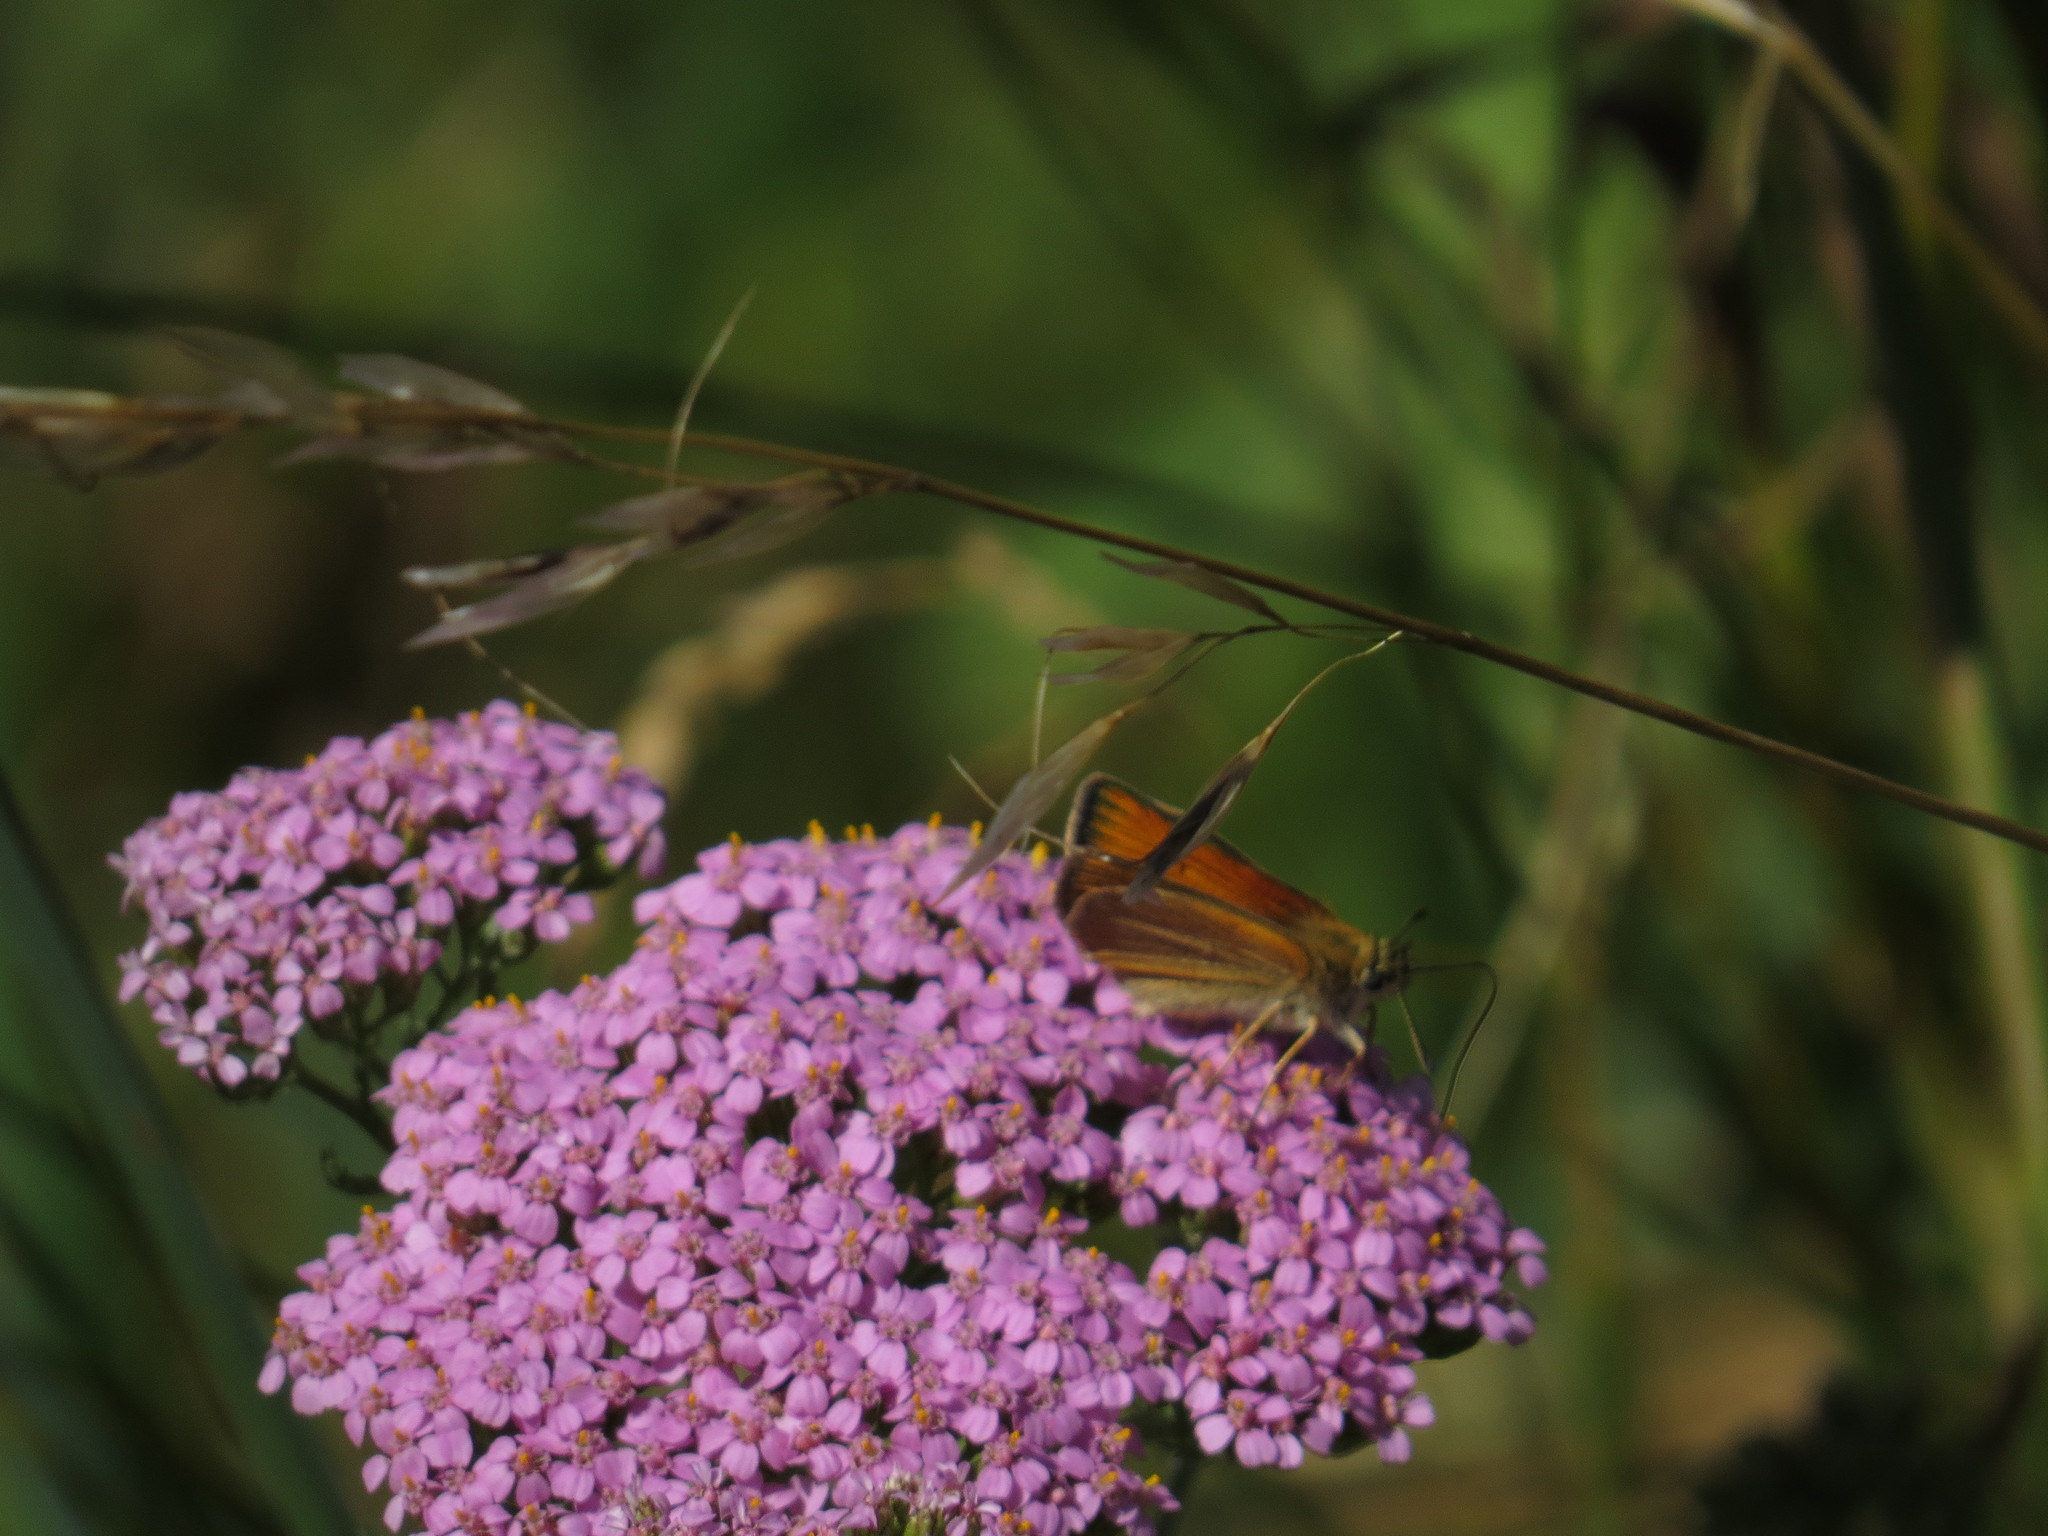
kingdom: Animalia
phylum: Arthropoda
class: Insecta
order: Lepidoptera
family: Hesperiidae
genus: Thymelicus
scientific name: Thymelicus lineola
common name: Essex skipper
